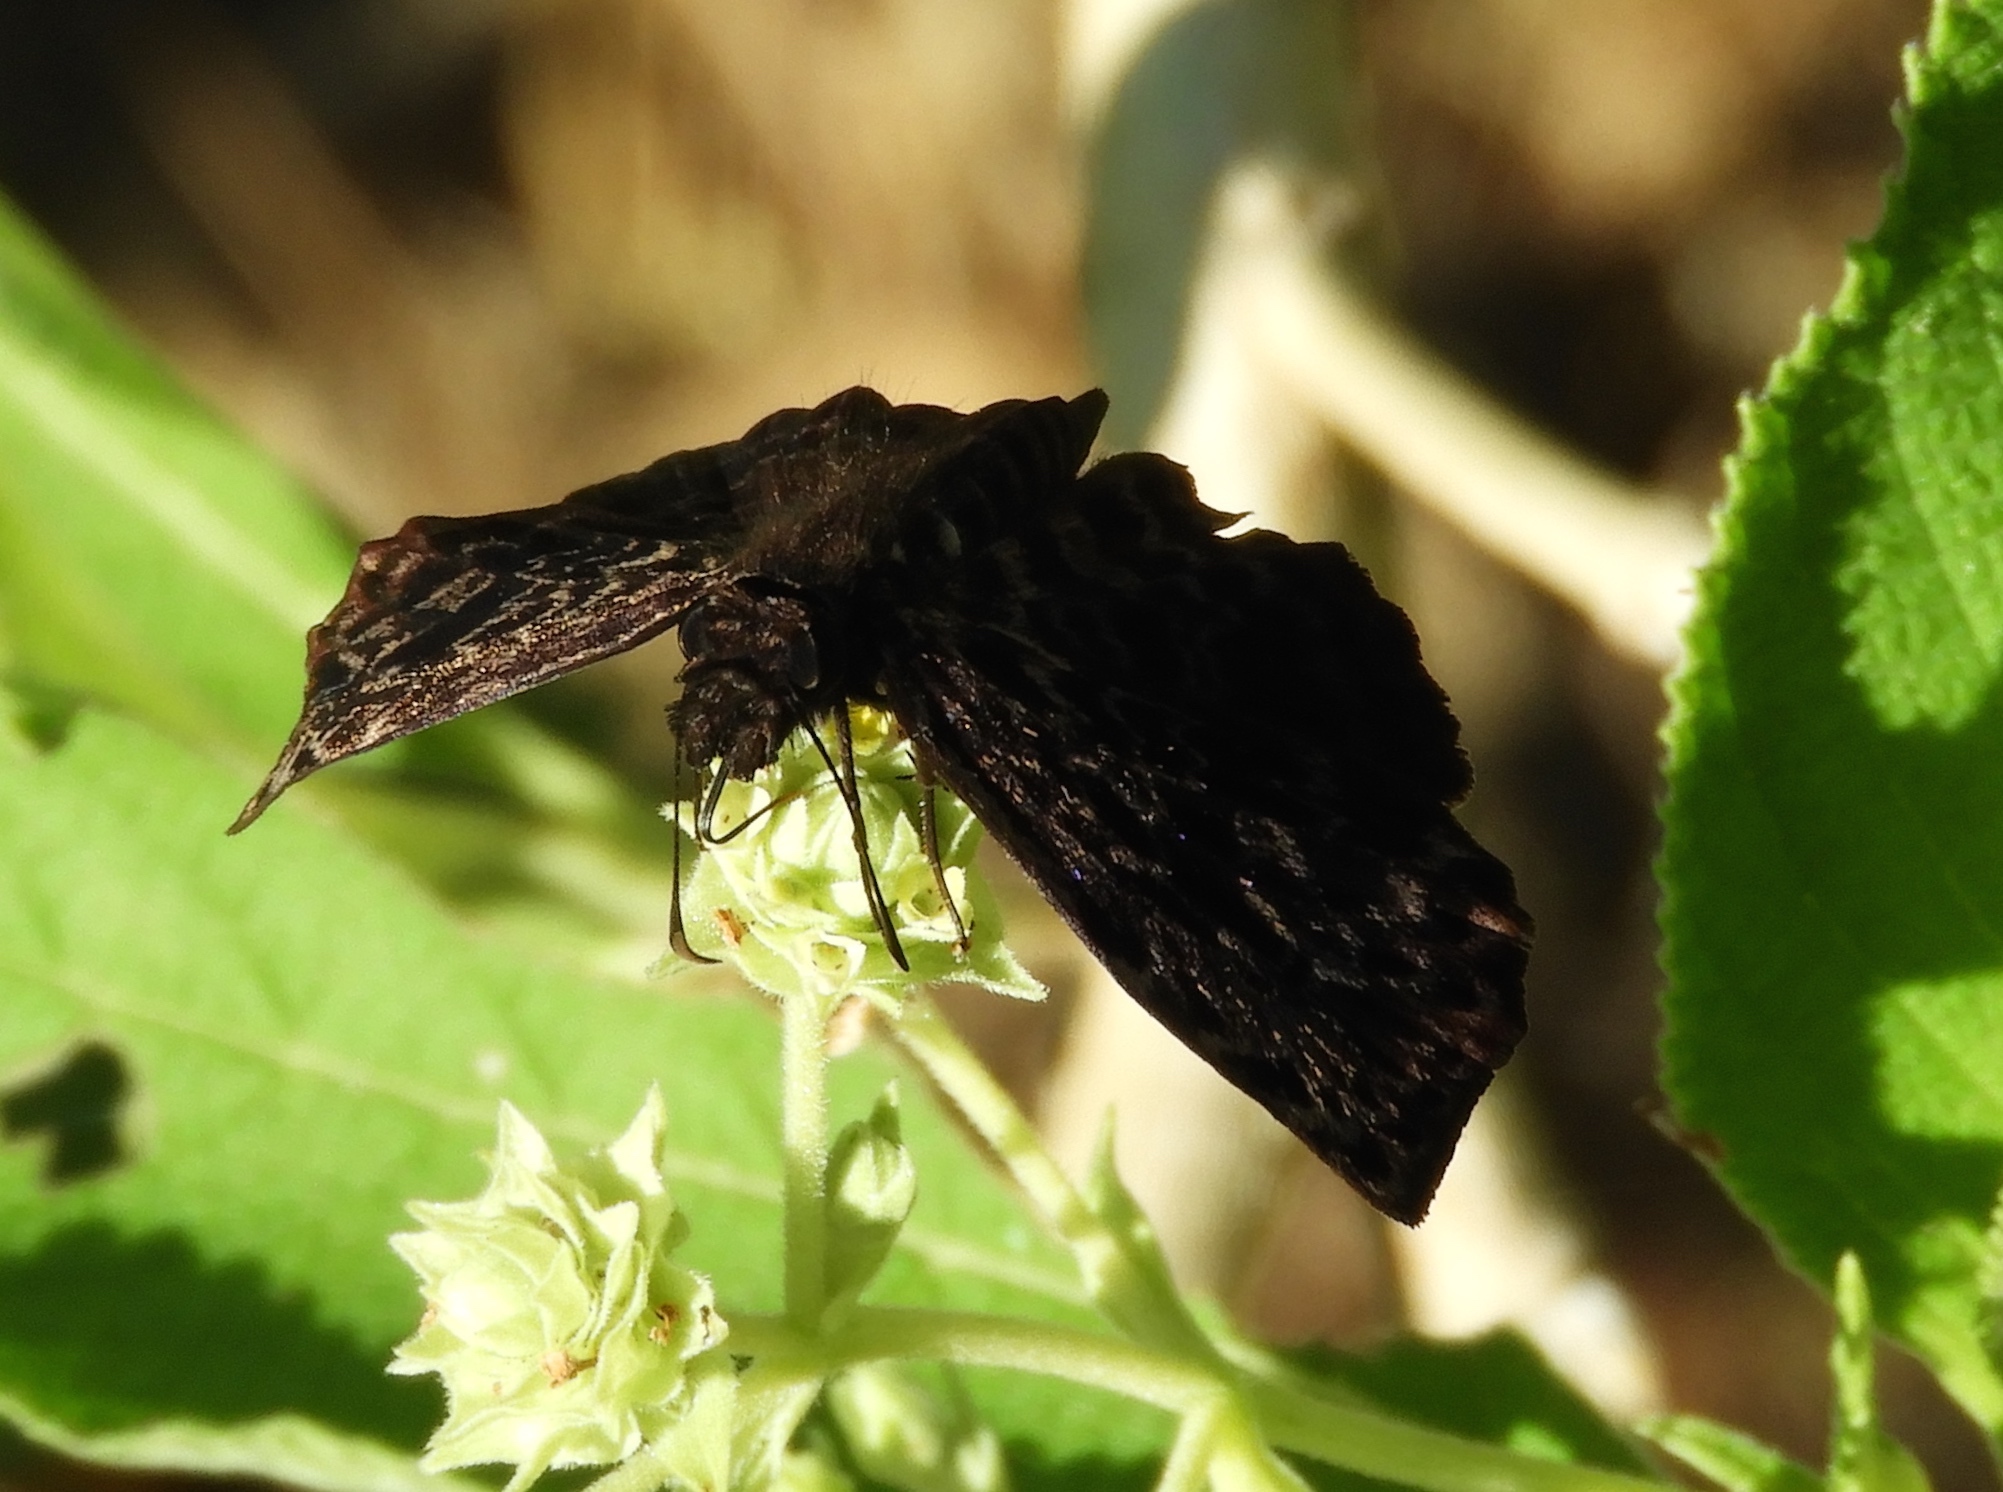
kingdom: Animalia
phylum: Arthropoda
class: Insecta
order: Lepidoptera
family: Hesperiidae
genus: Cycloglypha
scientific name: Cycloglypha thrasibulus
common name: Widespread bent-skipper
